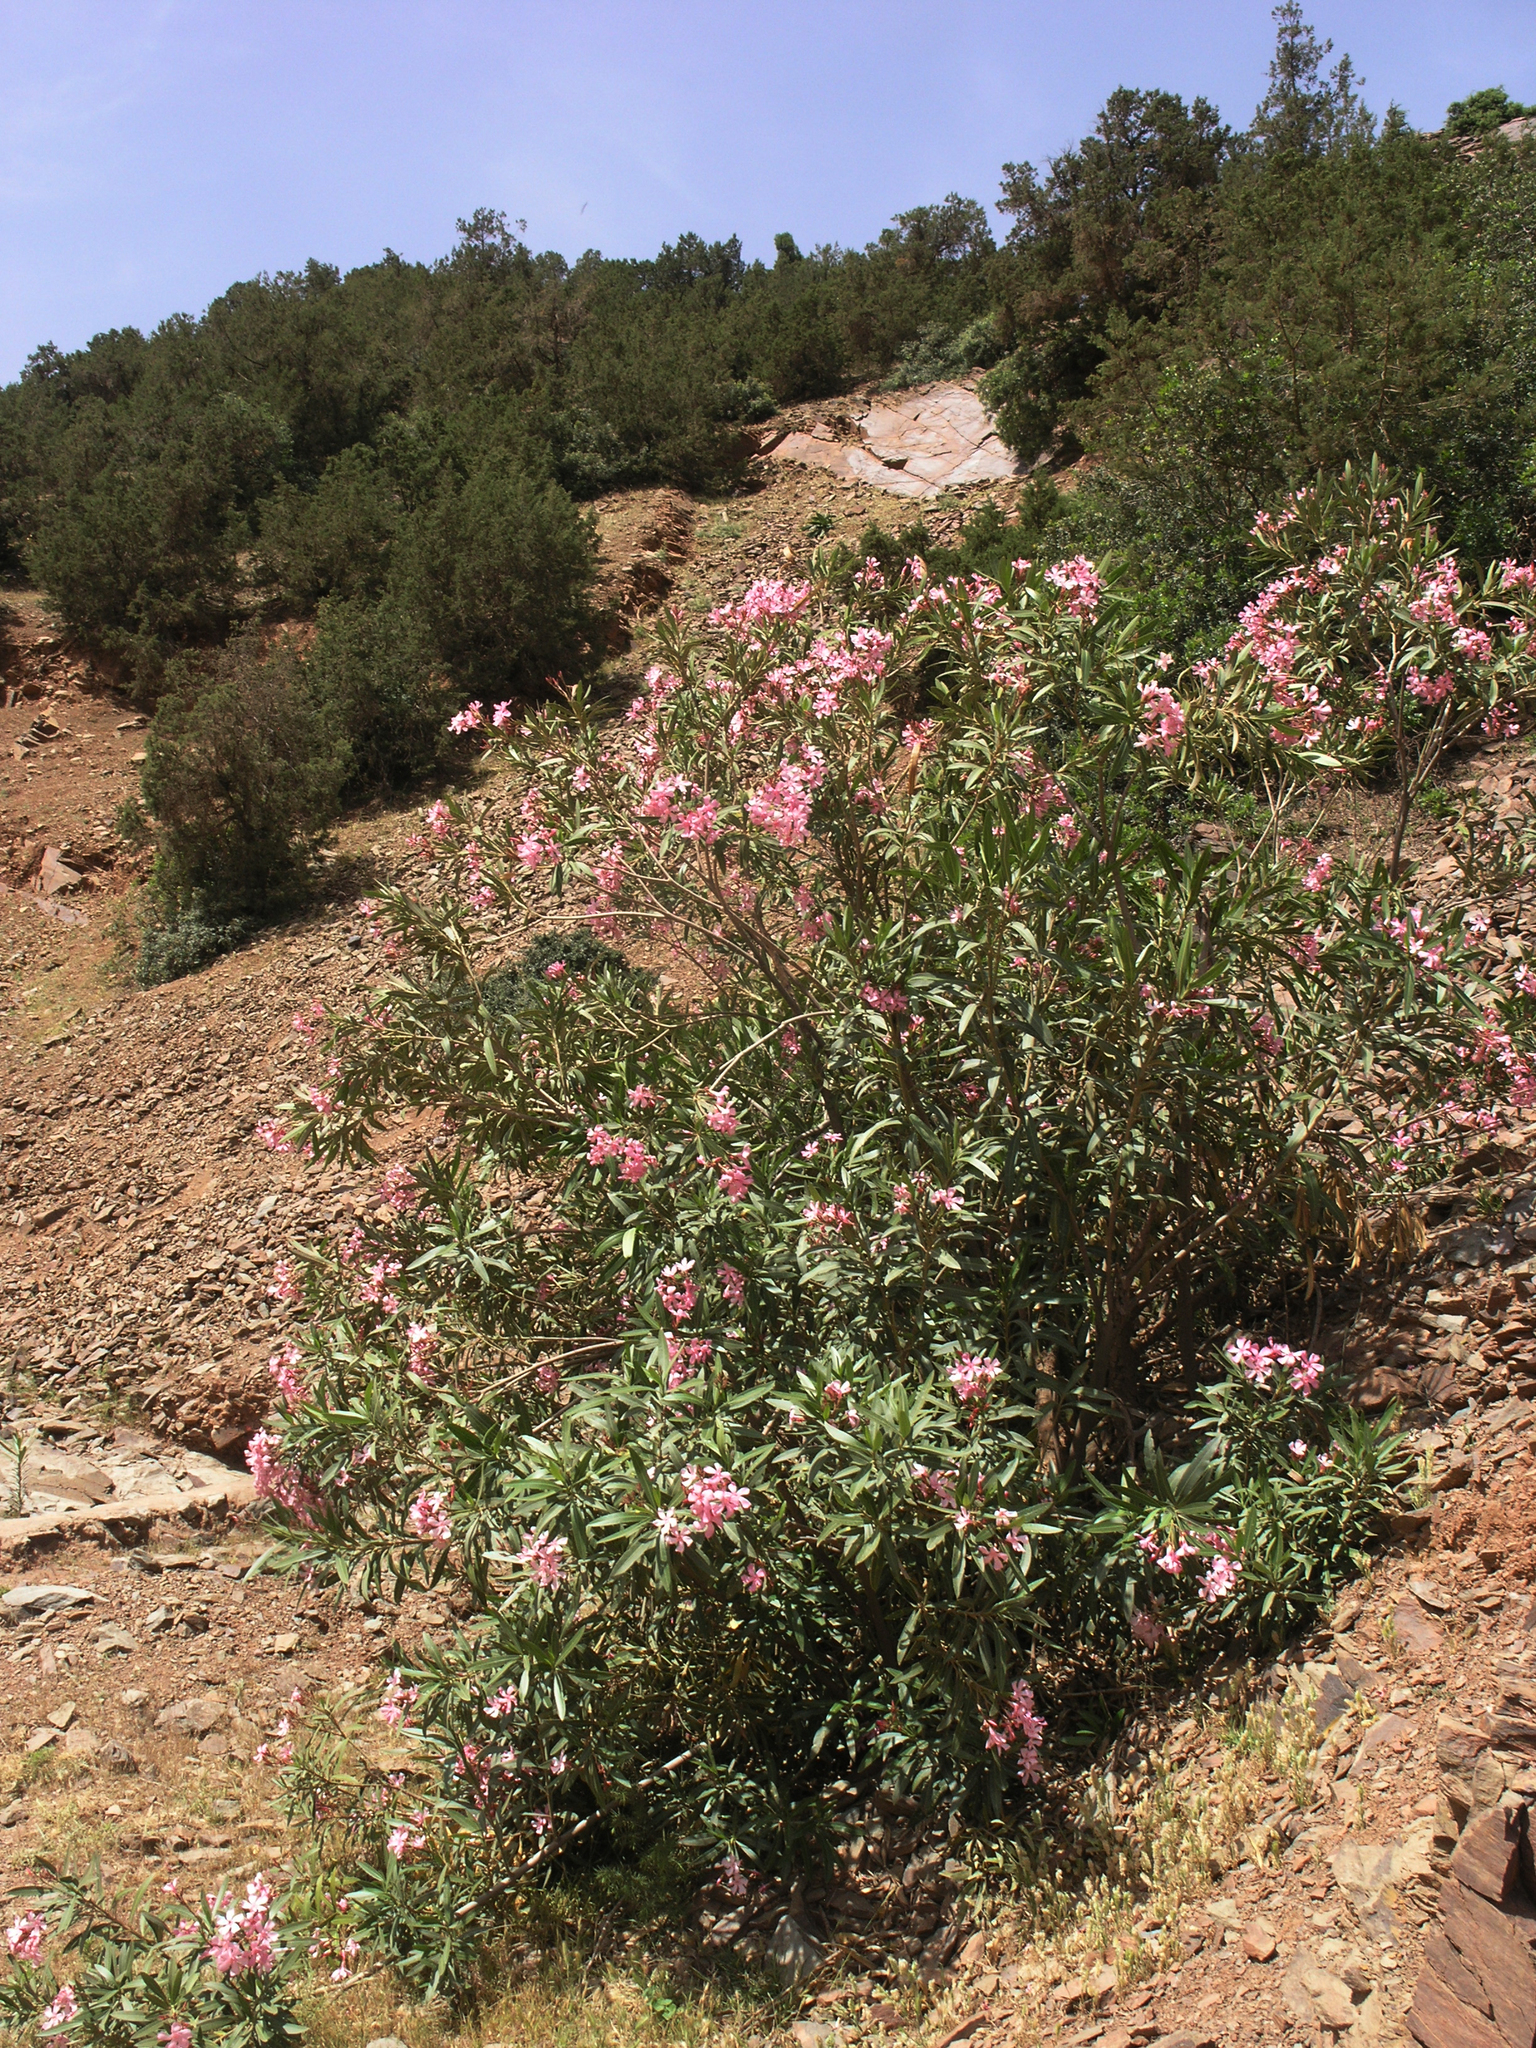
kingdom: Plantae
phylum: Tracheophyta
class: Magnoliopsida
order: Gentianales
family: Apocynaceae
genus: Nerium
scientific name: Nerium oleander
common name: Oleander
